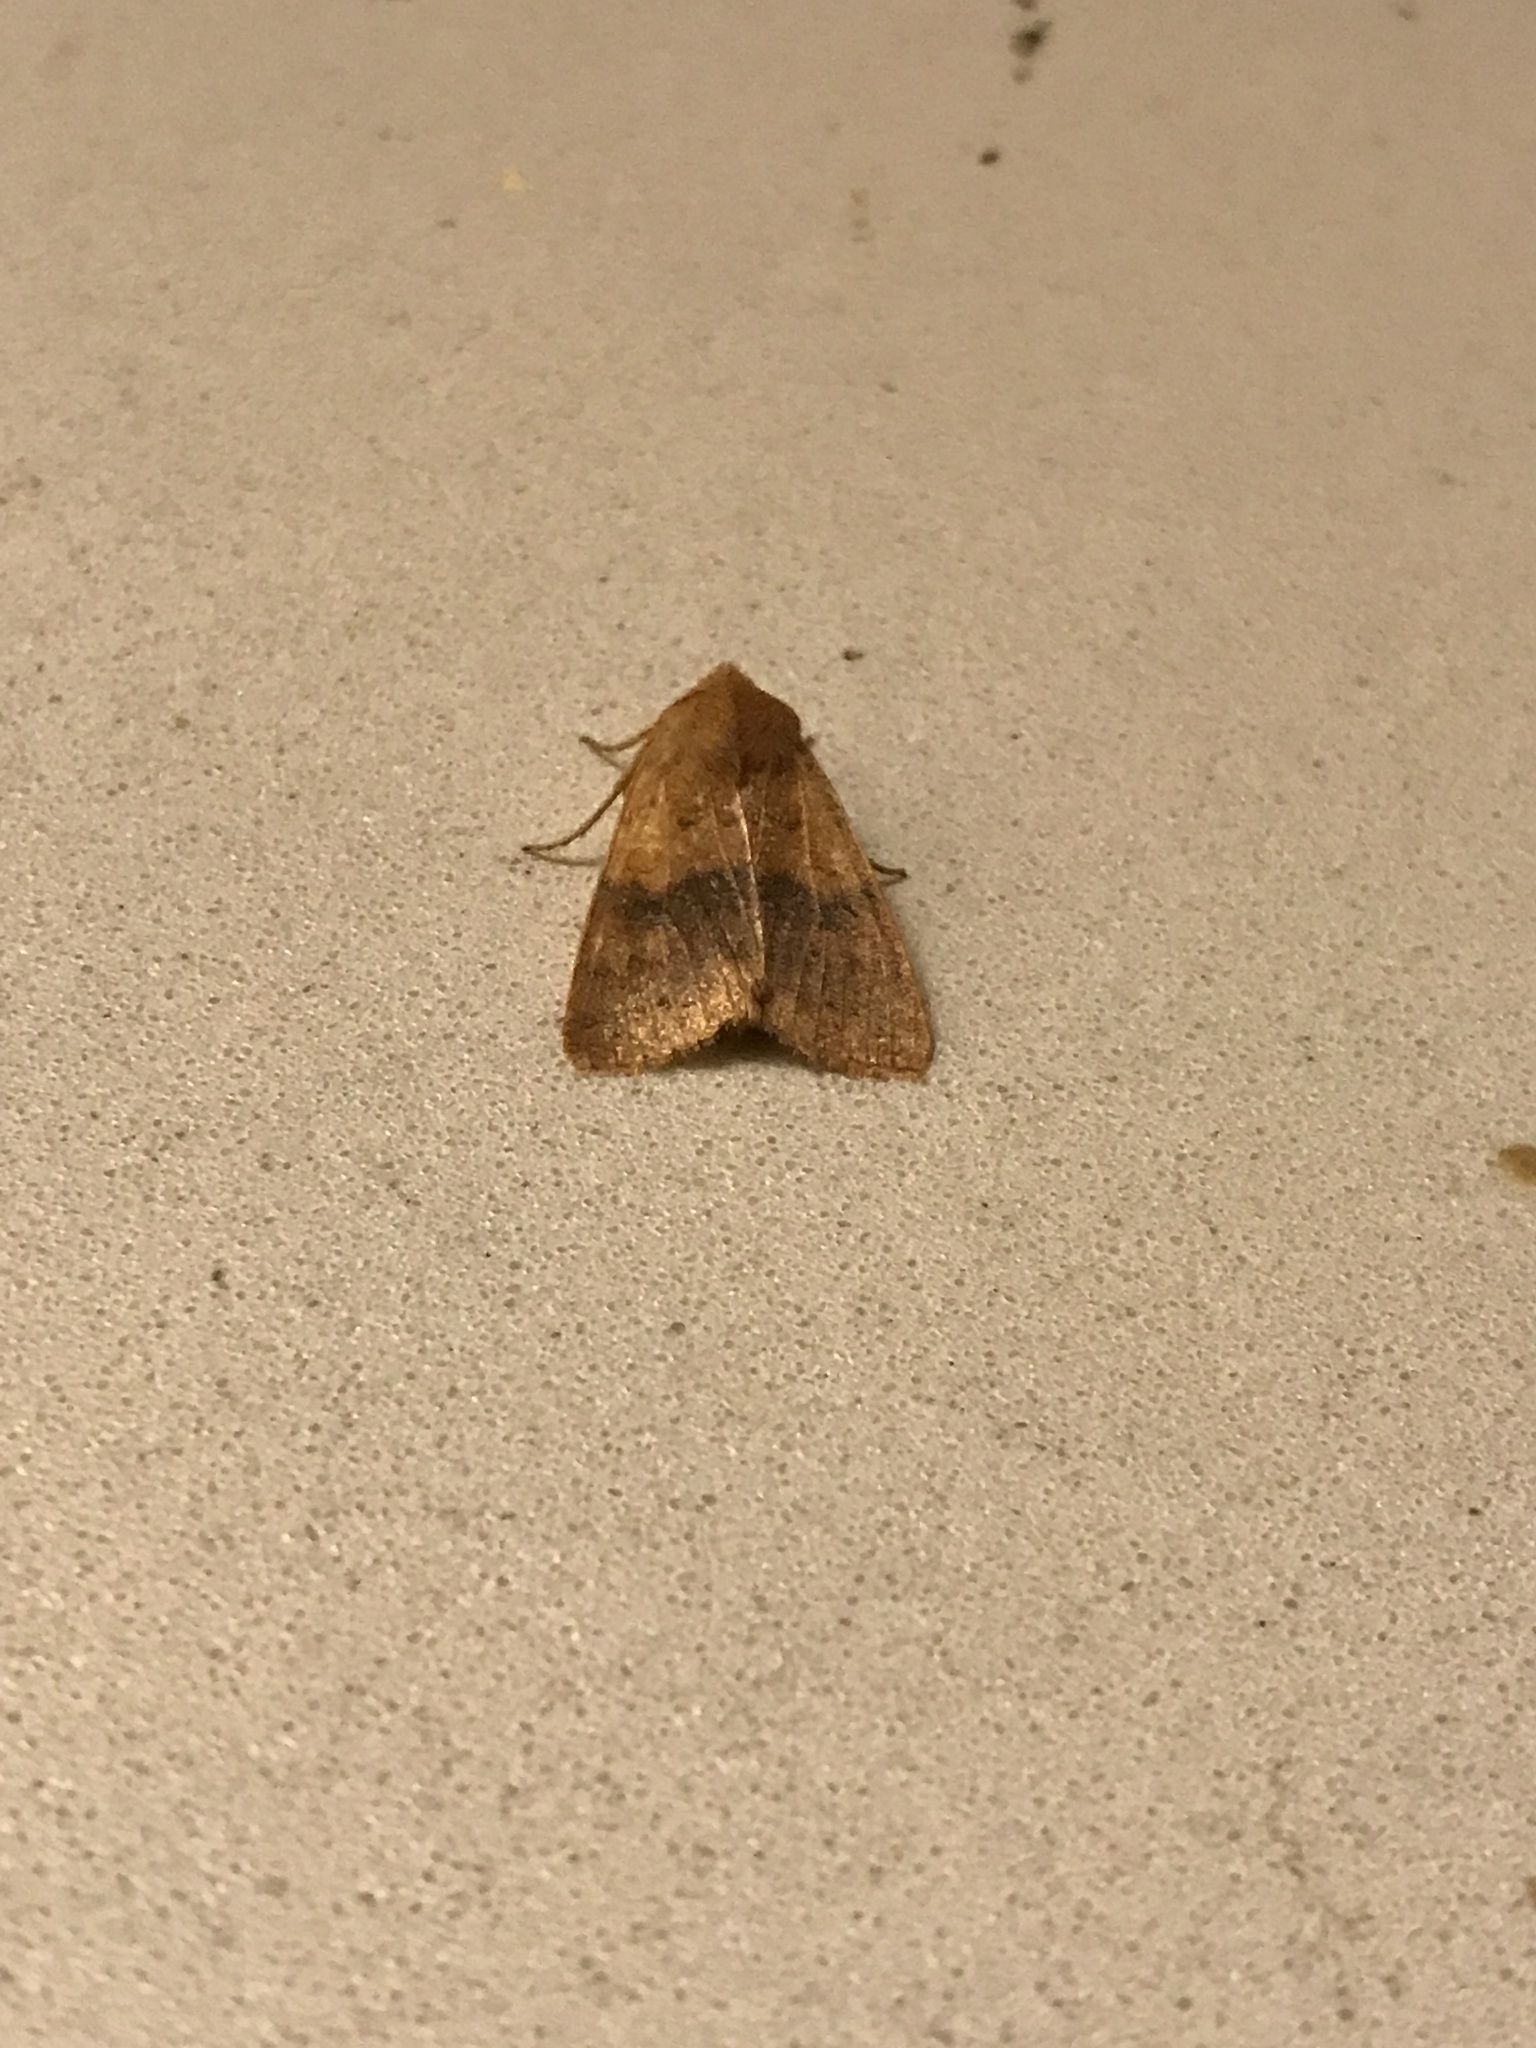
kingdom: Animalia
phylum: Arthropoda
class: Insecta
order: Lepidoptera
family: Noctuidae
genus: Agrochola
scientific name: Agrochola bicolorago
